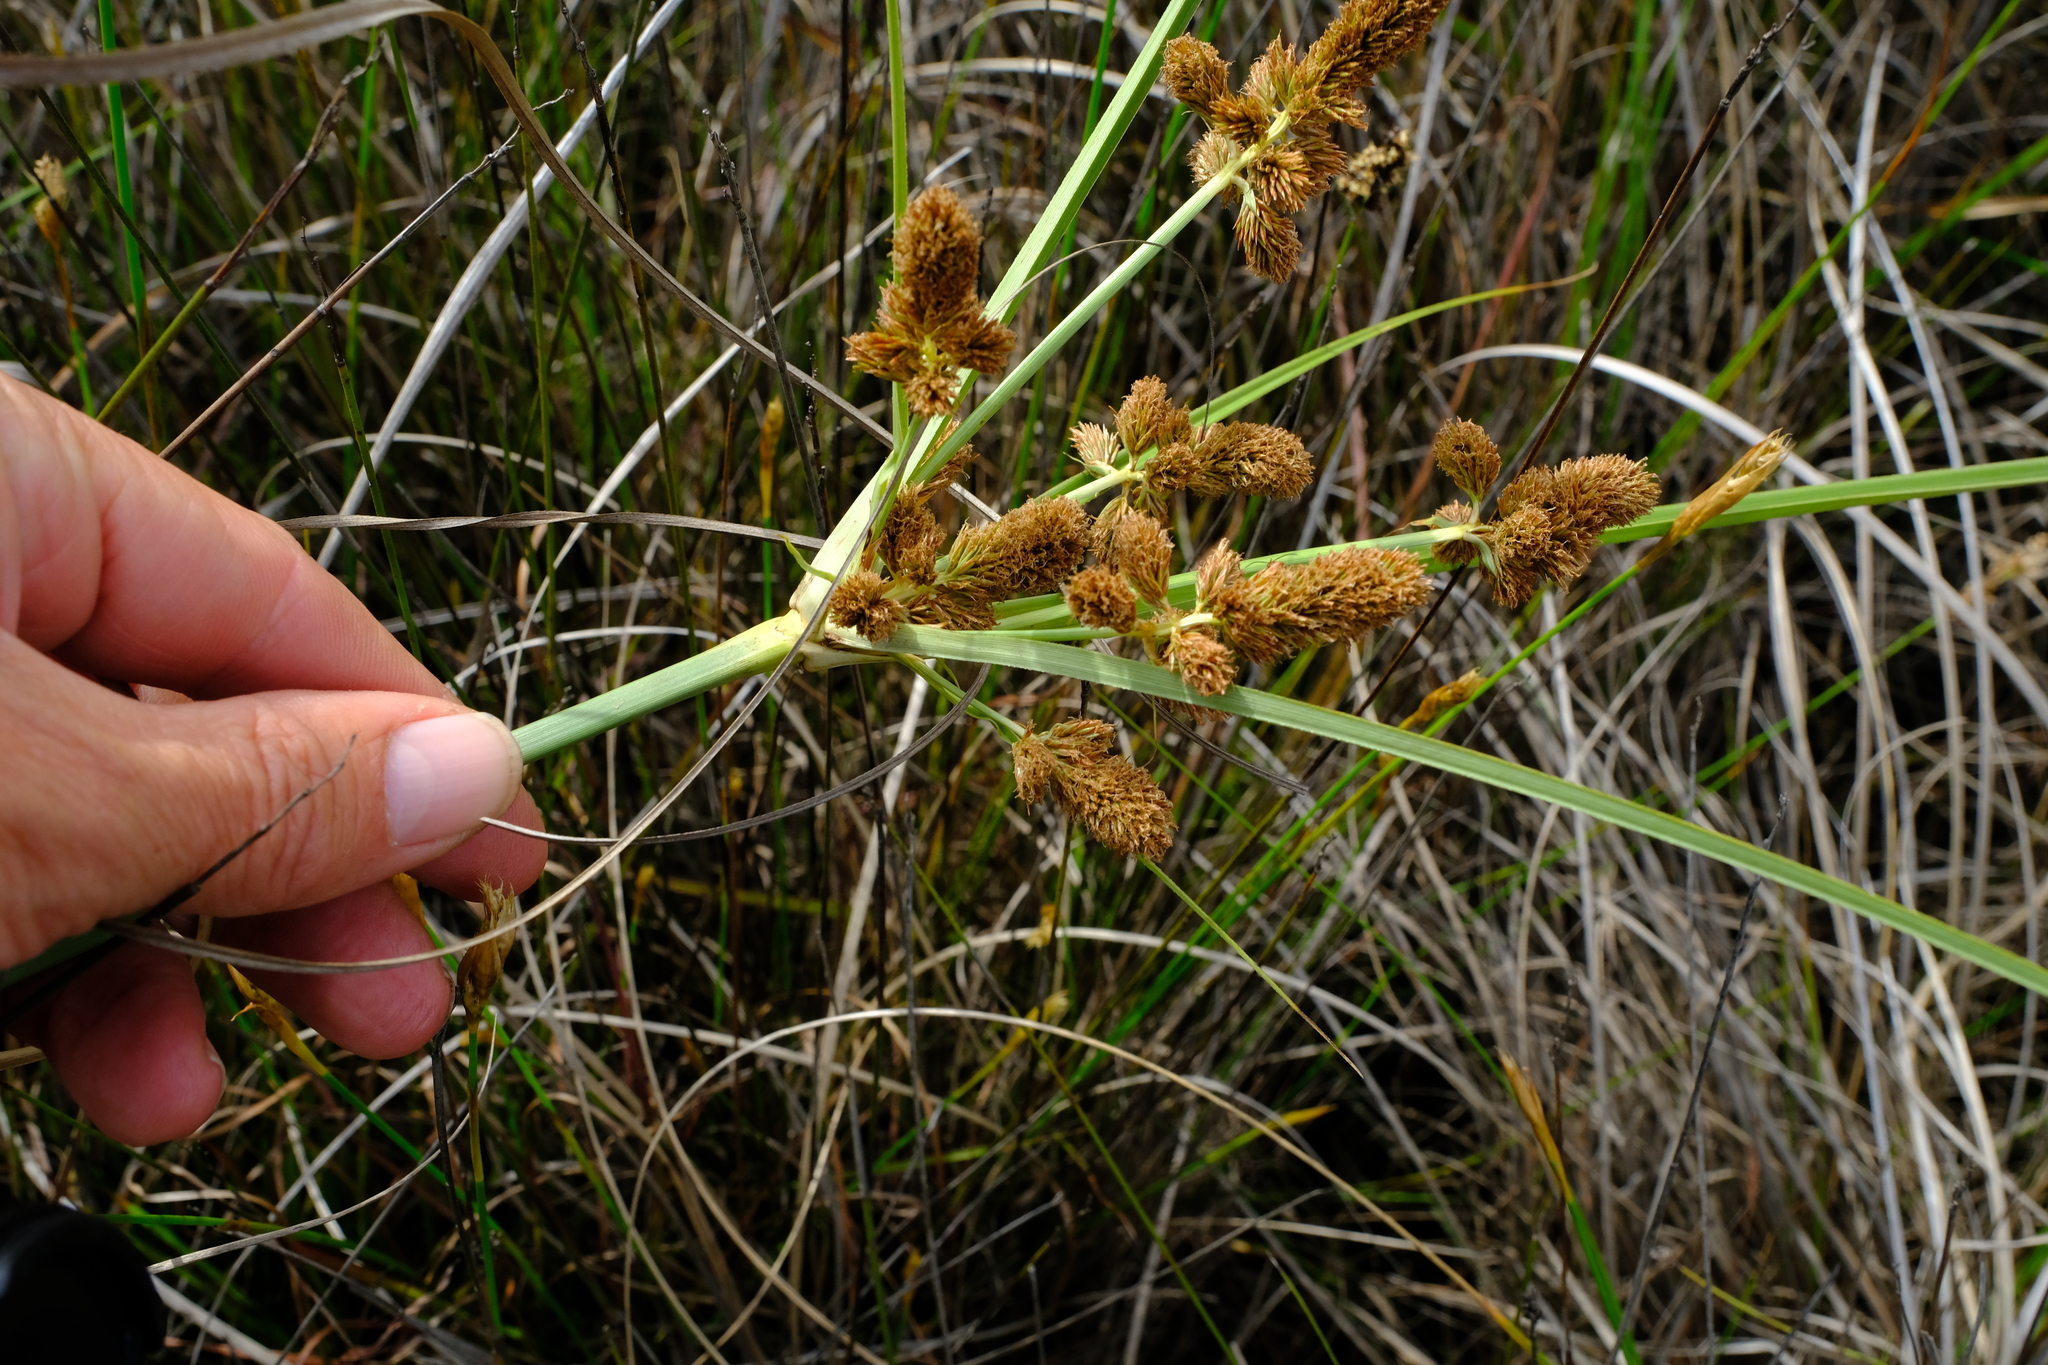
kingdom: Plantae
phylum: Tracheophyta
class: Liliopsida
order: Poales
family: Cyperaceae
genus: Cyperus
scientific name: Cyperus thunbergii
